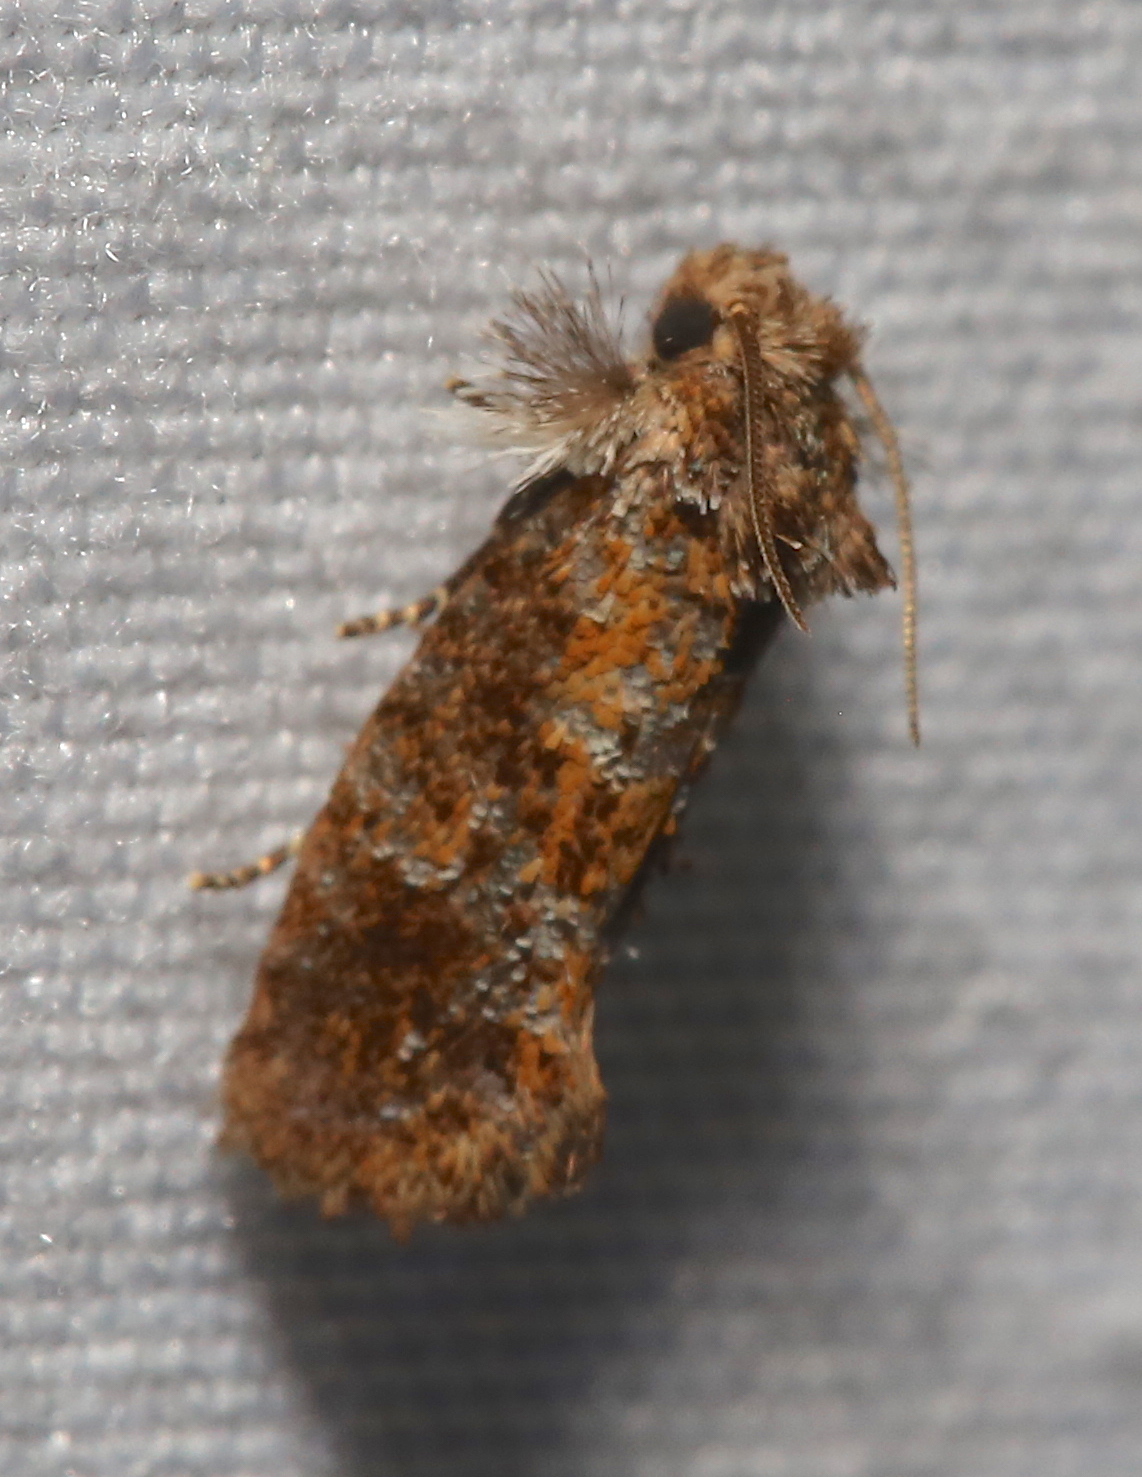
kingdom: Animalia
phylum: Arthropoda
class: Insecta
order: Lepidoptera
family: Tineidae
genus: Acrolophus
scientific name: Acrolophus panamae
